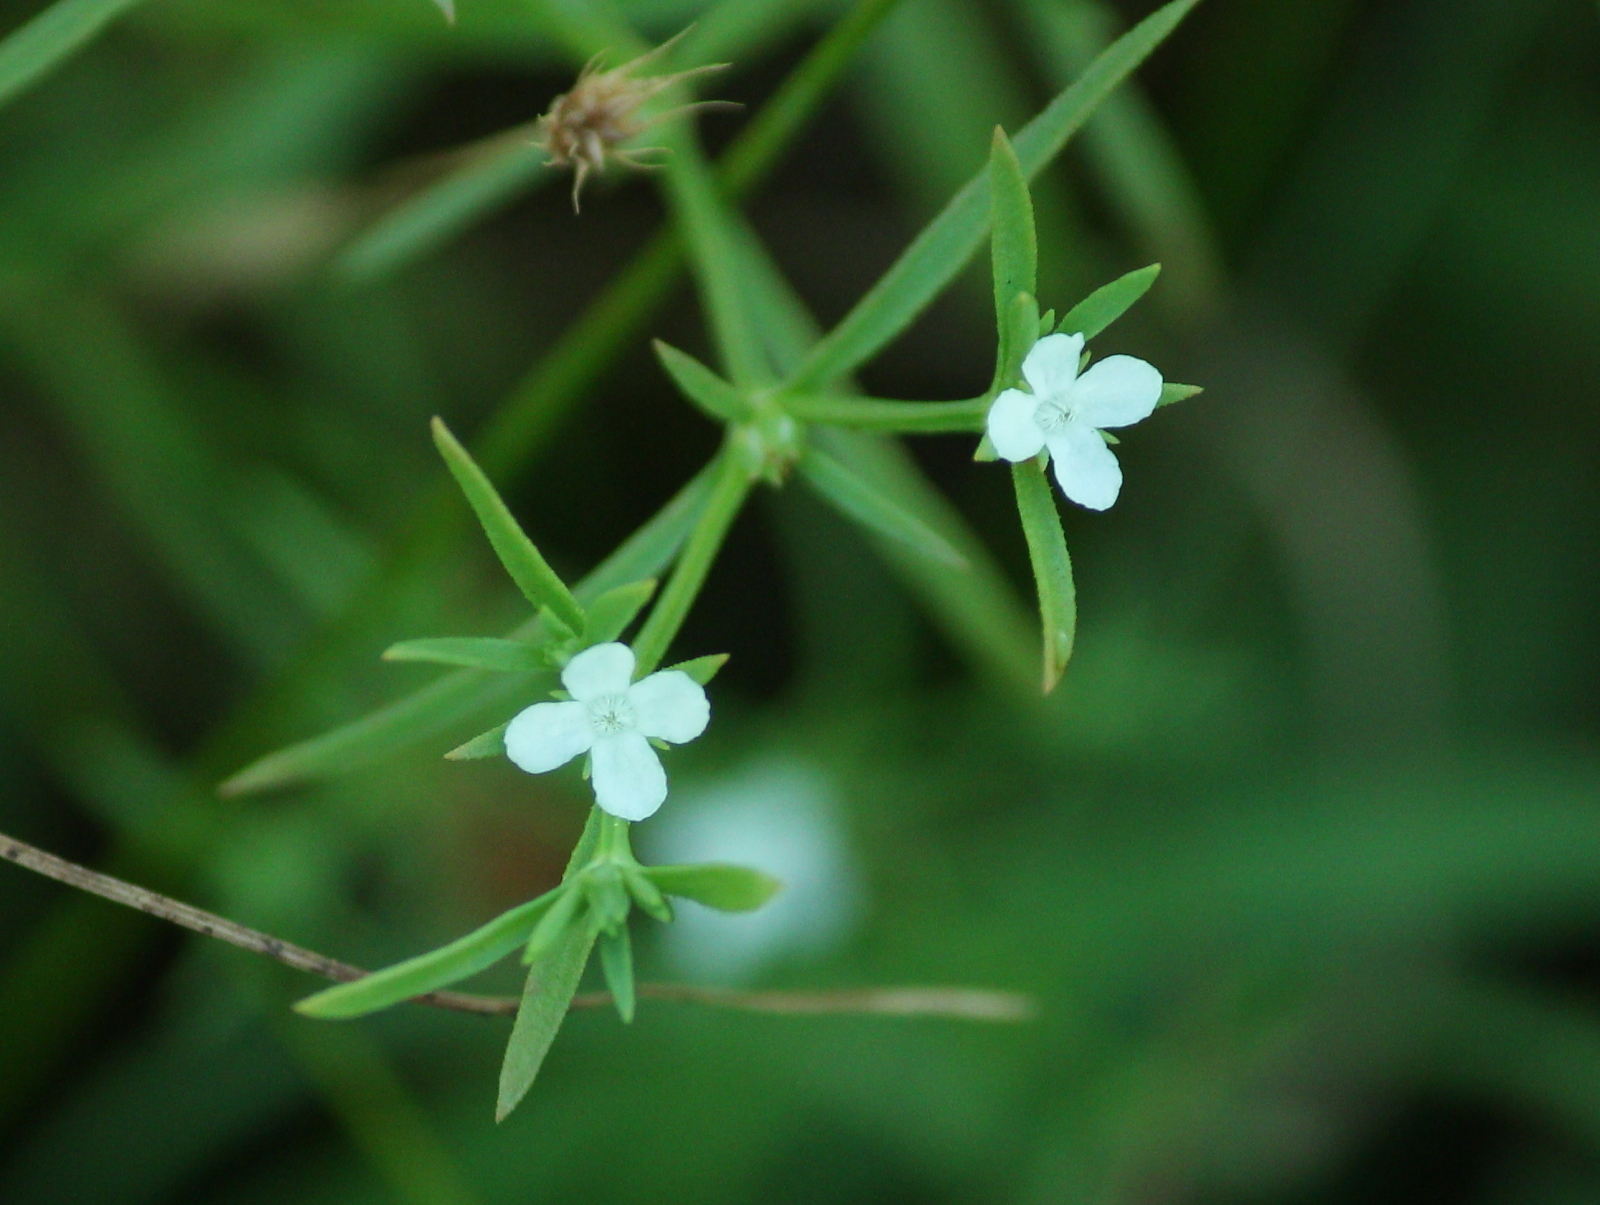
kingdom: Plantae
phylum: Tracheophyta
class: Magnoliopsida
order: Lamiales
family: Tetrachondraceae
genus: Polypremum
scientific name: Polypremum procumbens
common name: Juniper-leaf
